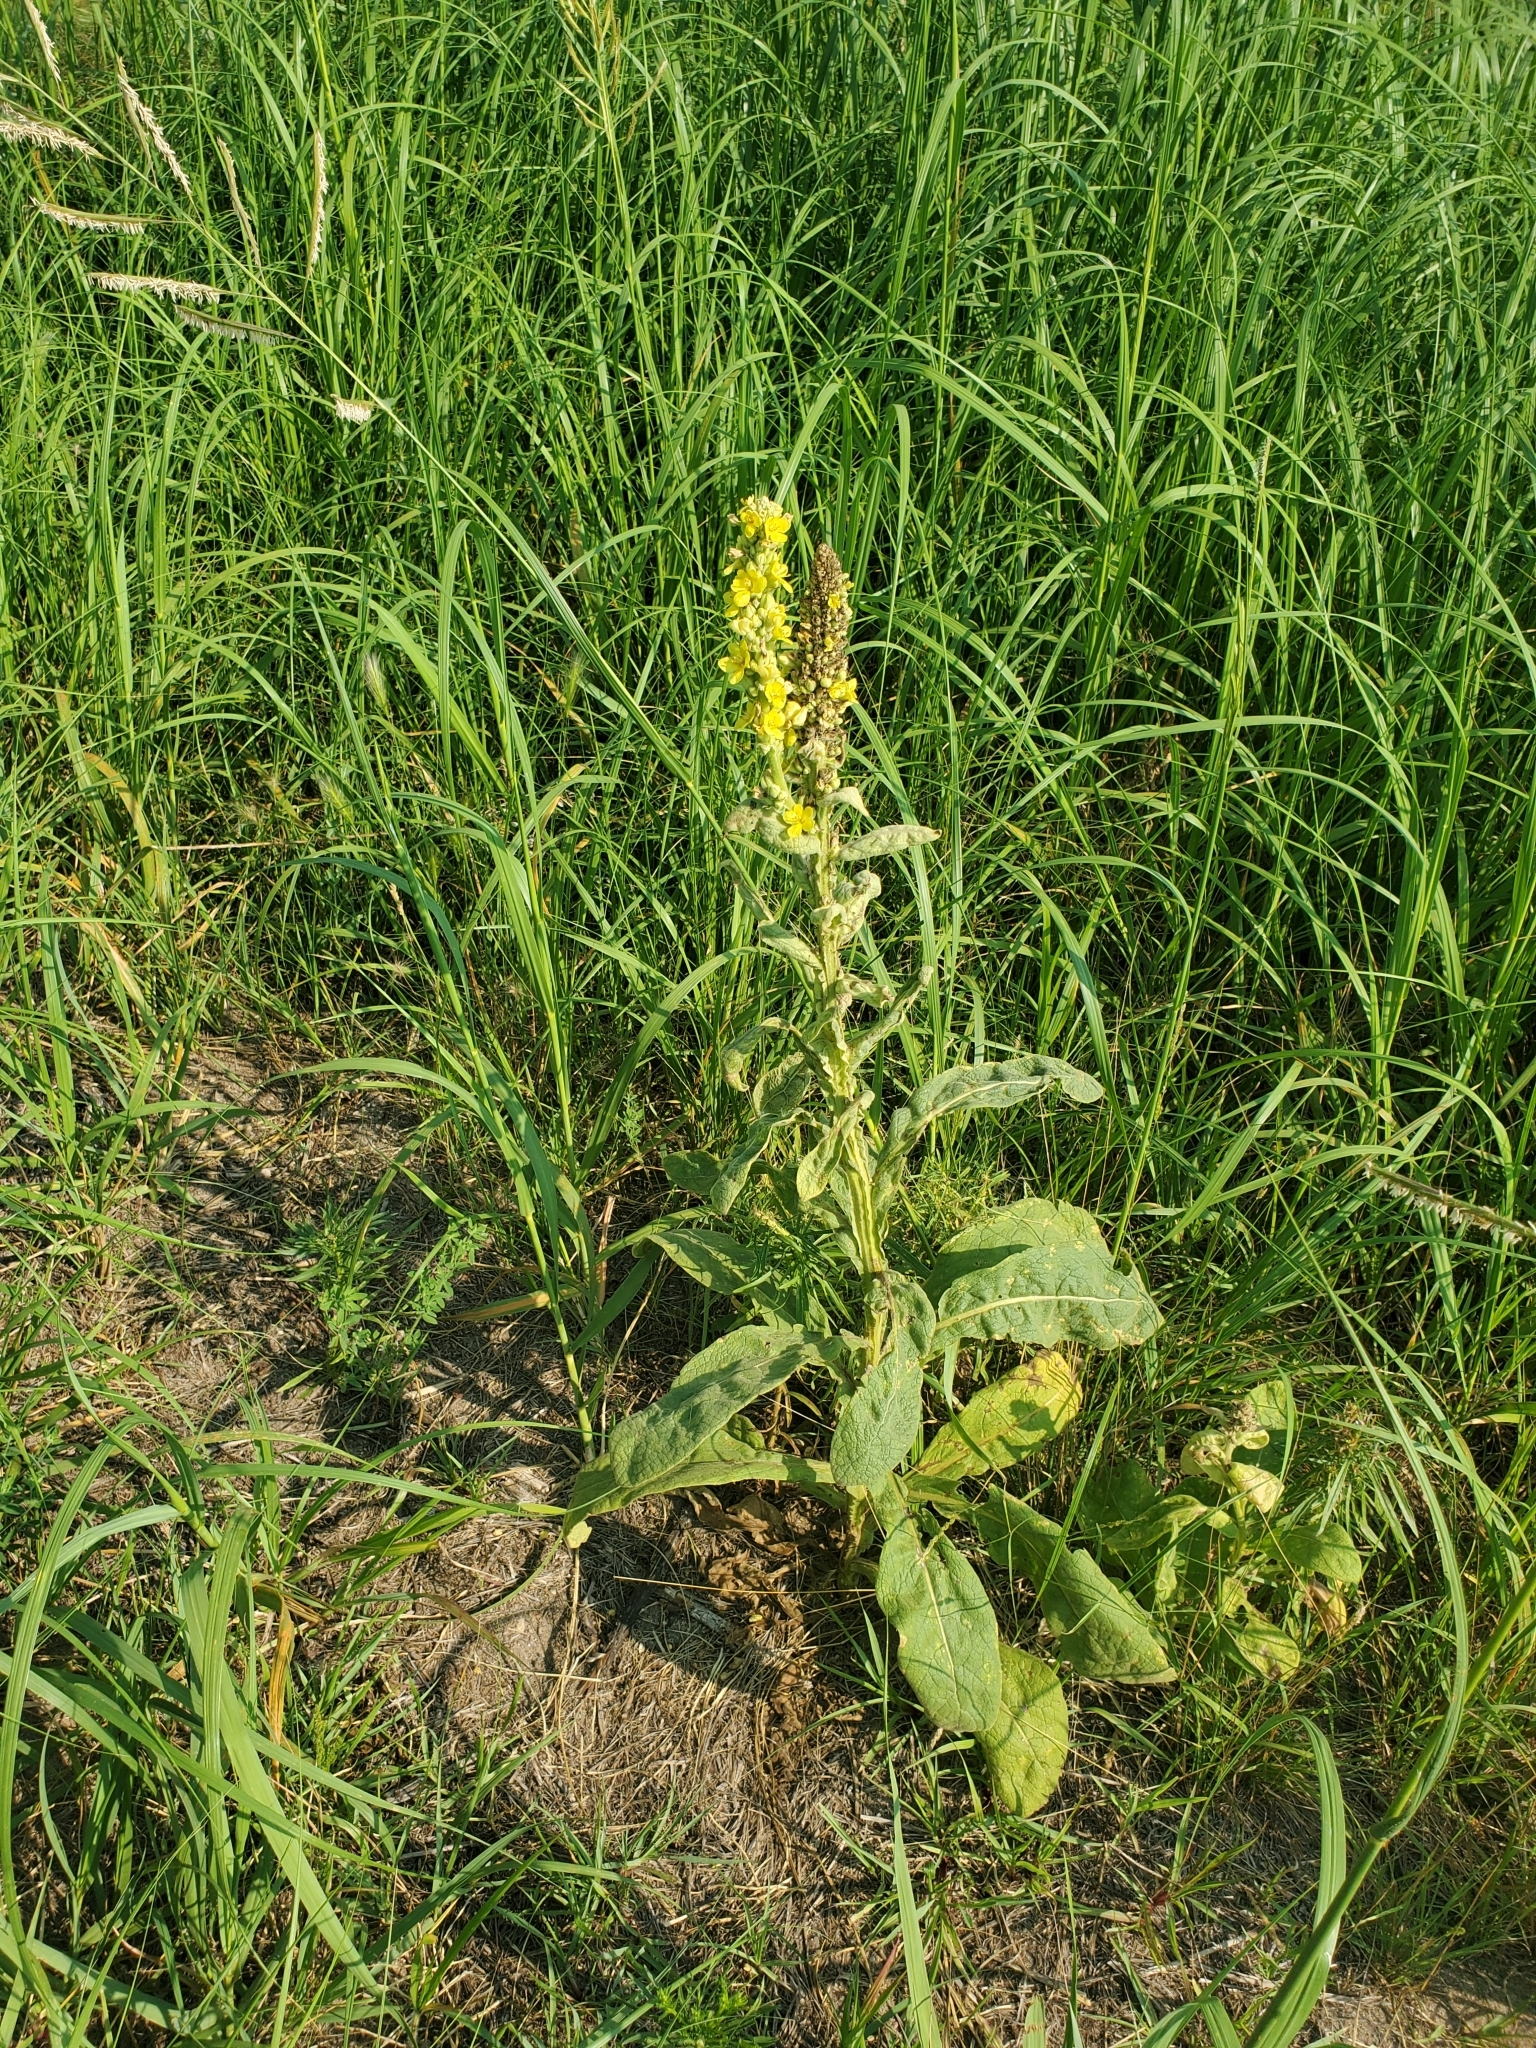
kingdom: Plantae
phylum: Tracheophyta
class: Magnoliopsida
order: Lamiales
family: Scrophulariaceae
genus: Verbascum
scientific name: Verbascum thapsus
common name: Common mullein
